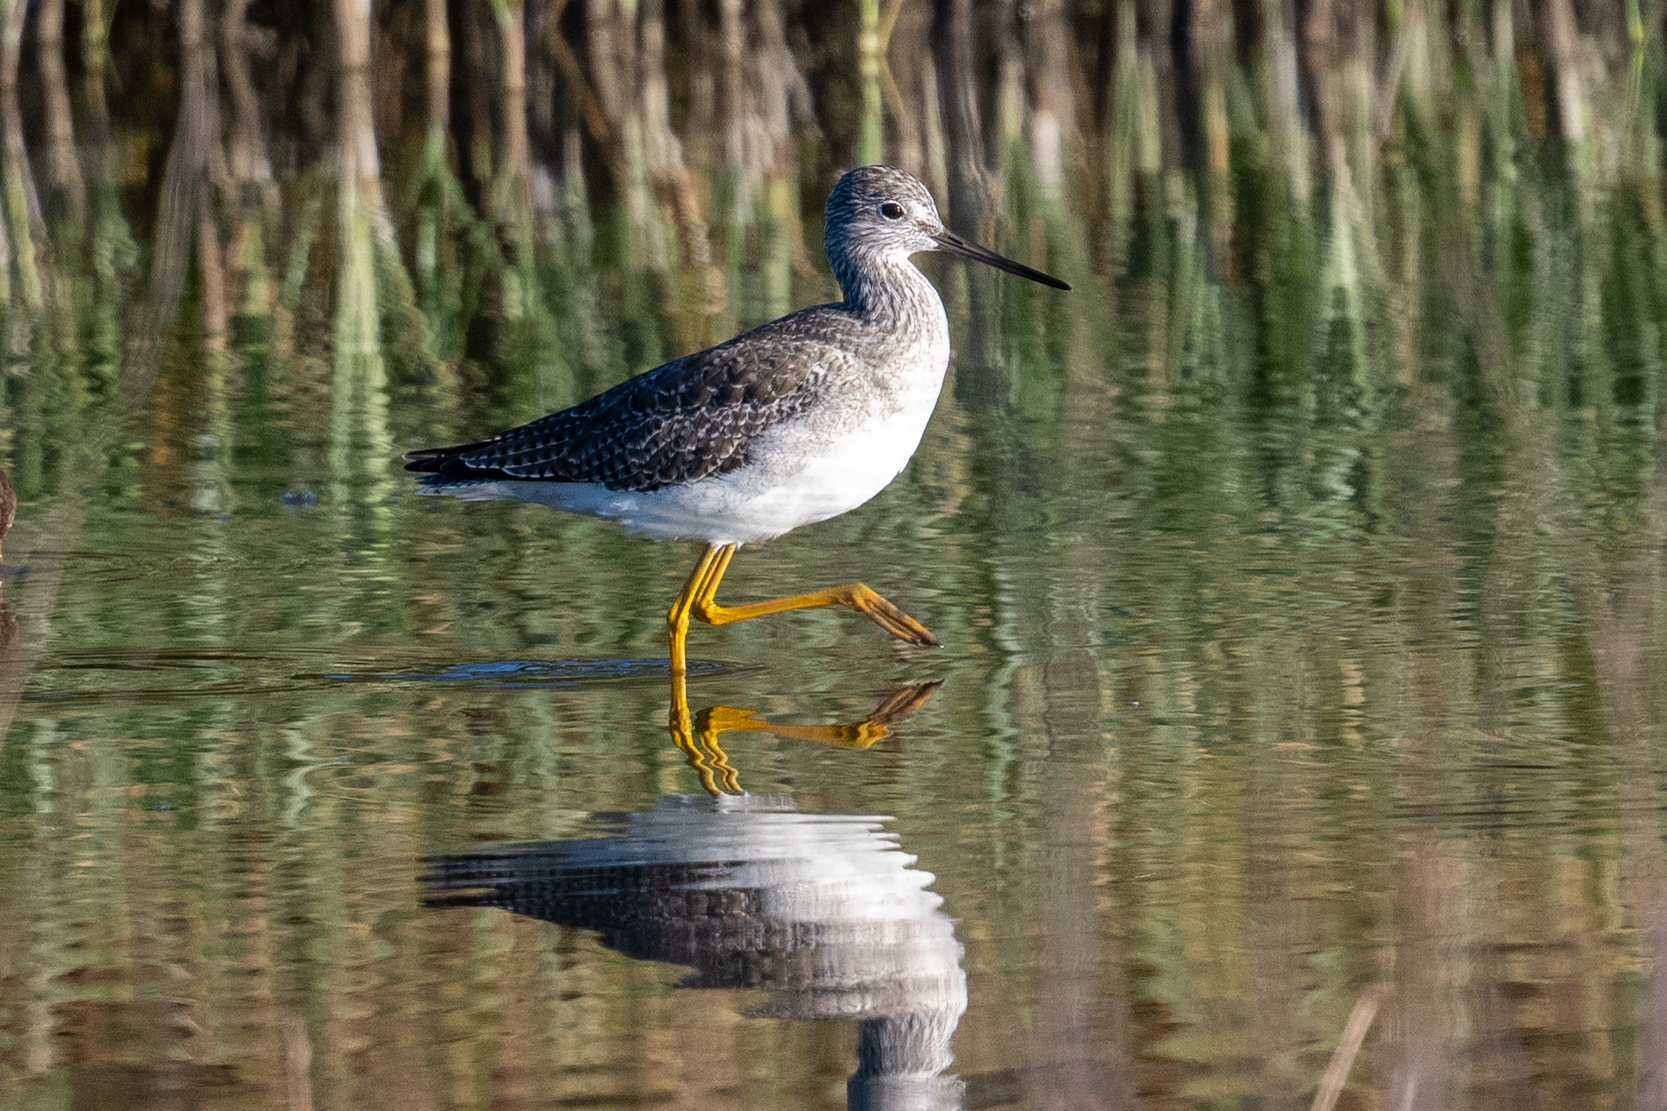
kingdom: Animalia
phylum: Chordata
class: Aves
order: Charadriiformes
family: Scolopacidae
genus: Tringa
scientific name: Tringa melanoleuca
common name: Greater yellowlegs
